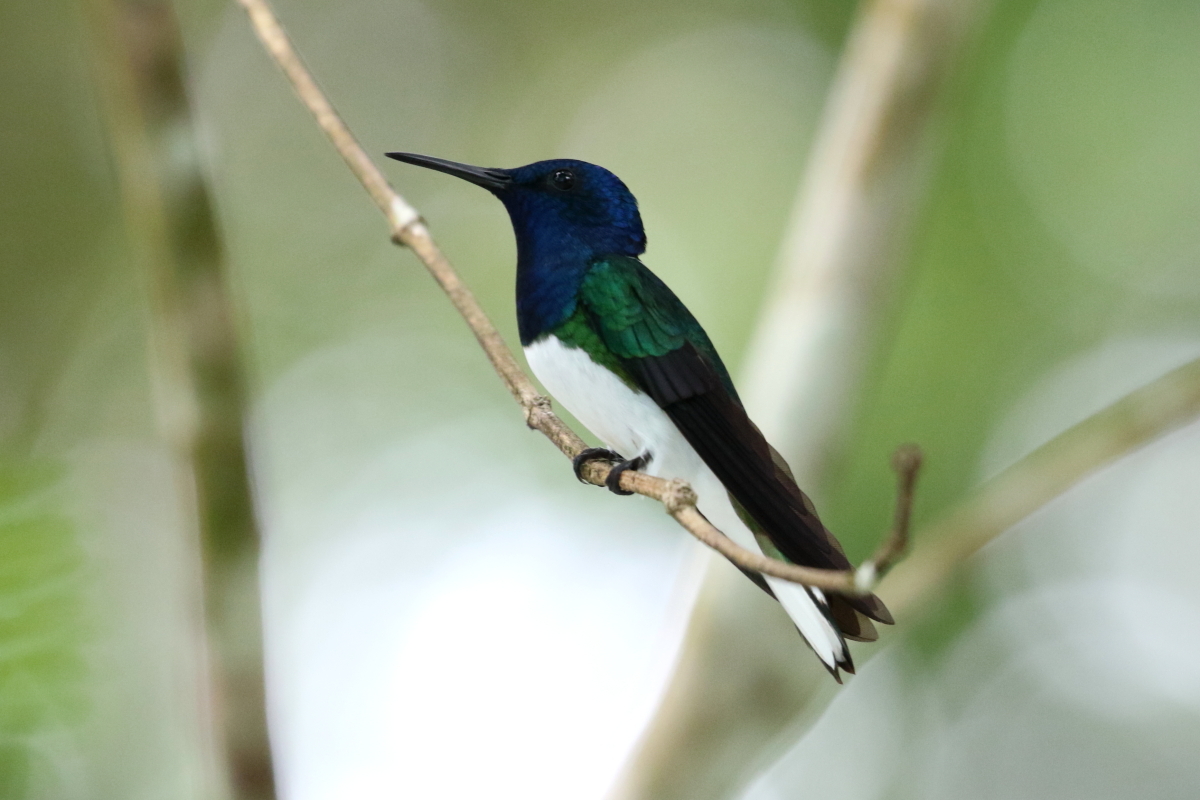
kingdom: Animalia
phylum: Chordata
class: Aves
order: Apodiformes
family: Trochilidae
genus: Florisuga
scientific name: Florisuga mellivora
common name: White-necked jacobin
